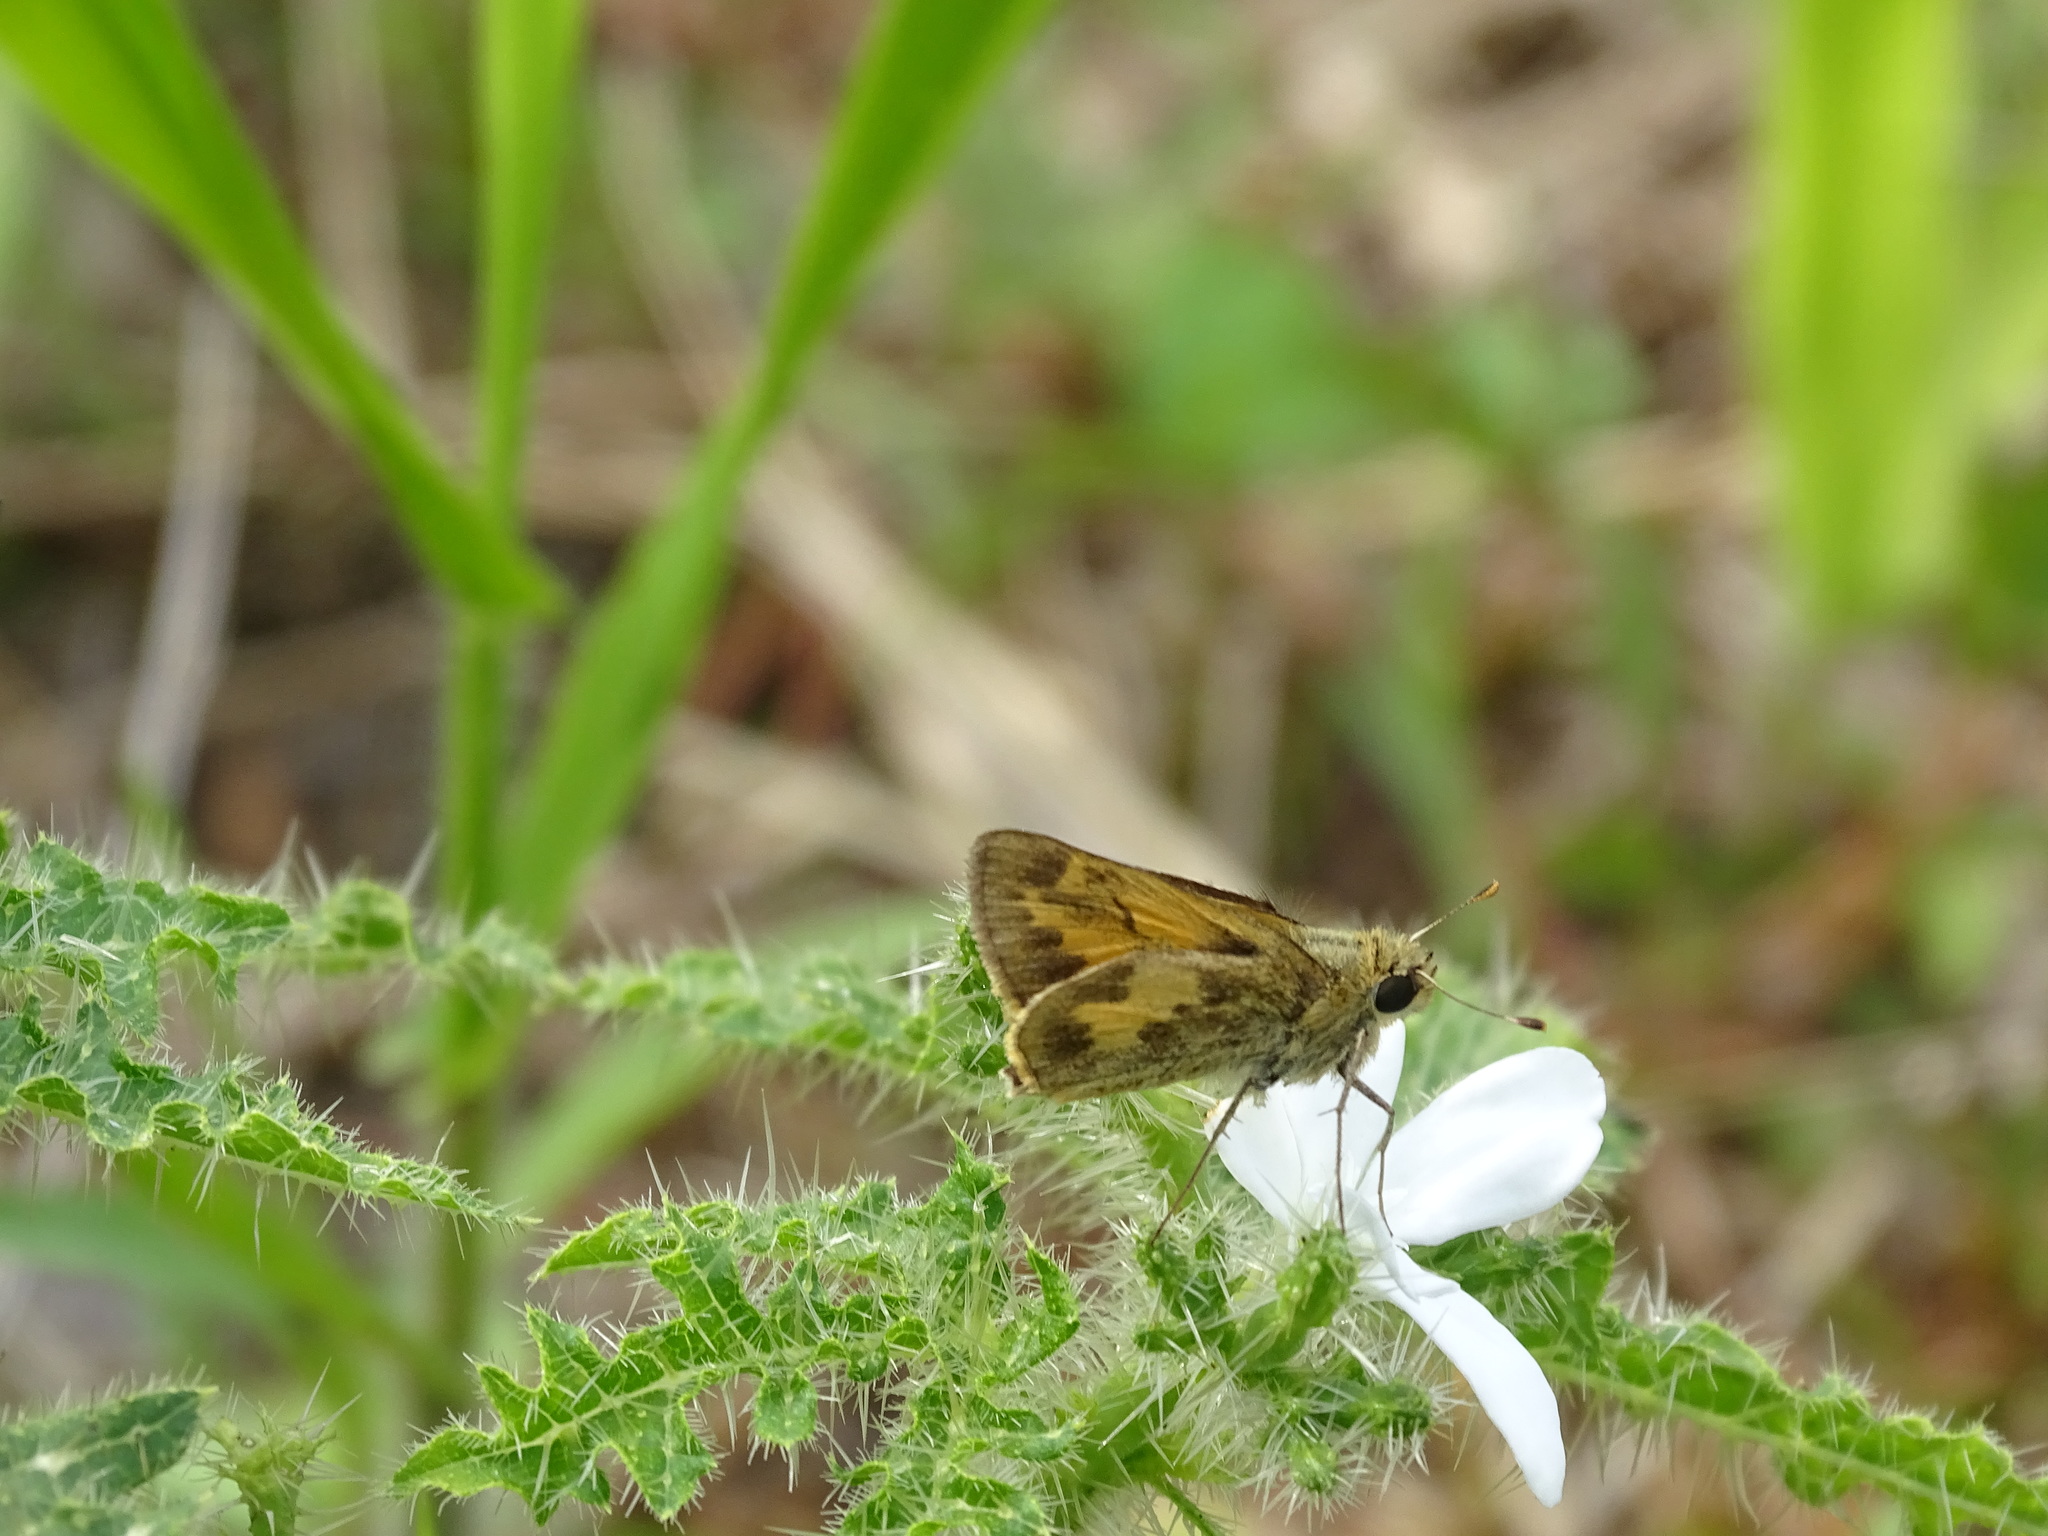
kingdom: Animalia
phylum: Arthropoda
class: Insecta
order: Lepidoptera
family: Hesperiidae
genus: Polites
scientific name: Polites vibex
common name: Whirlabout
